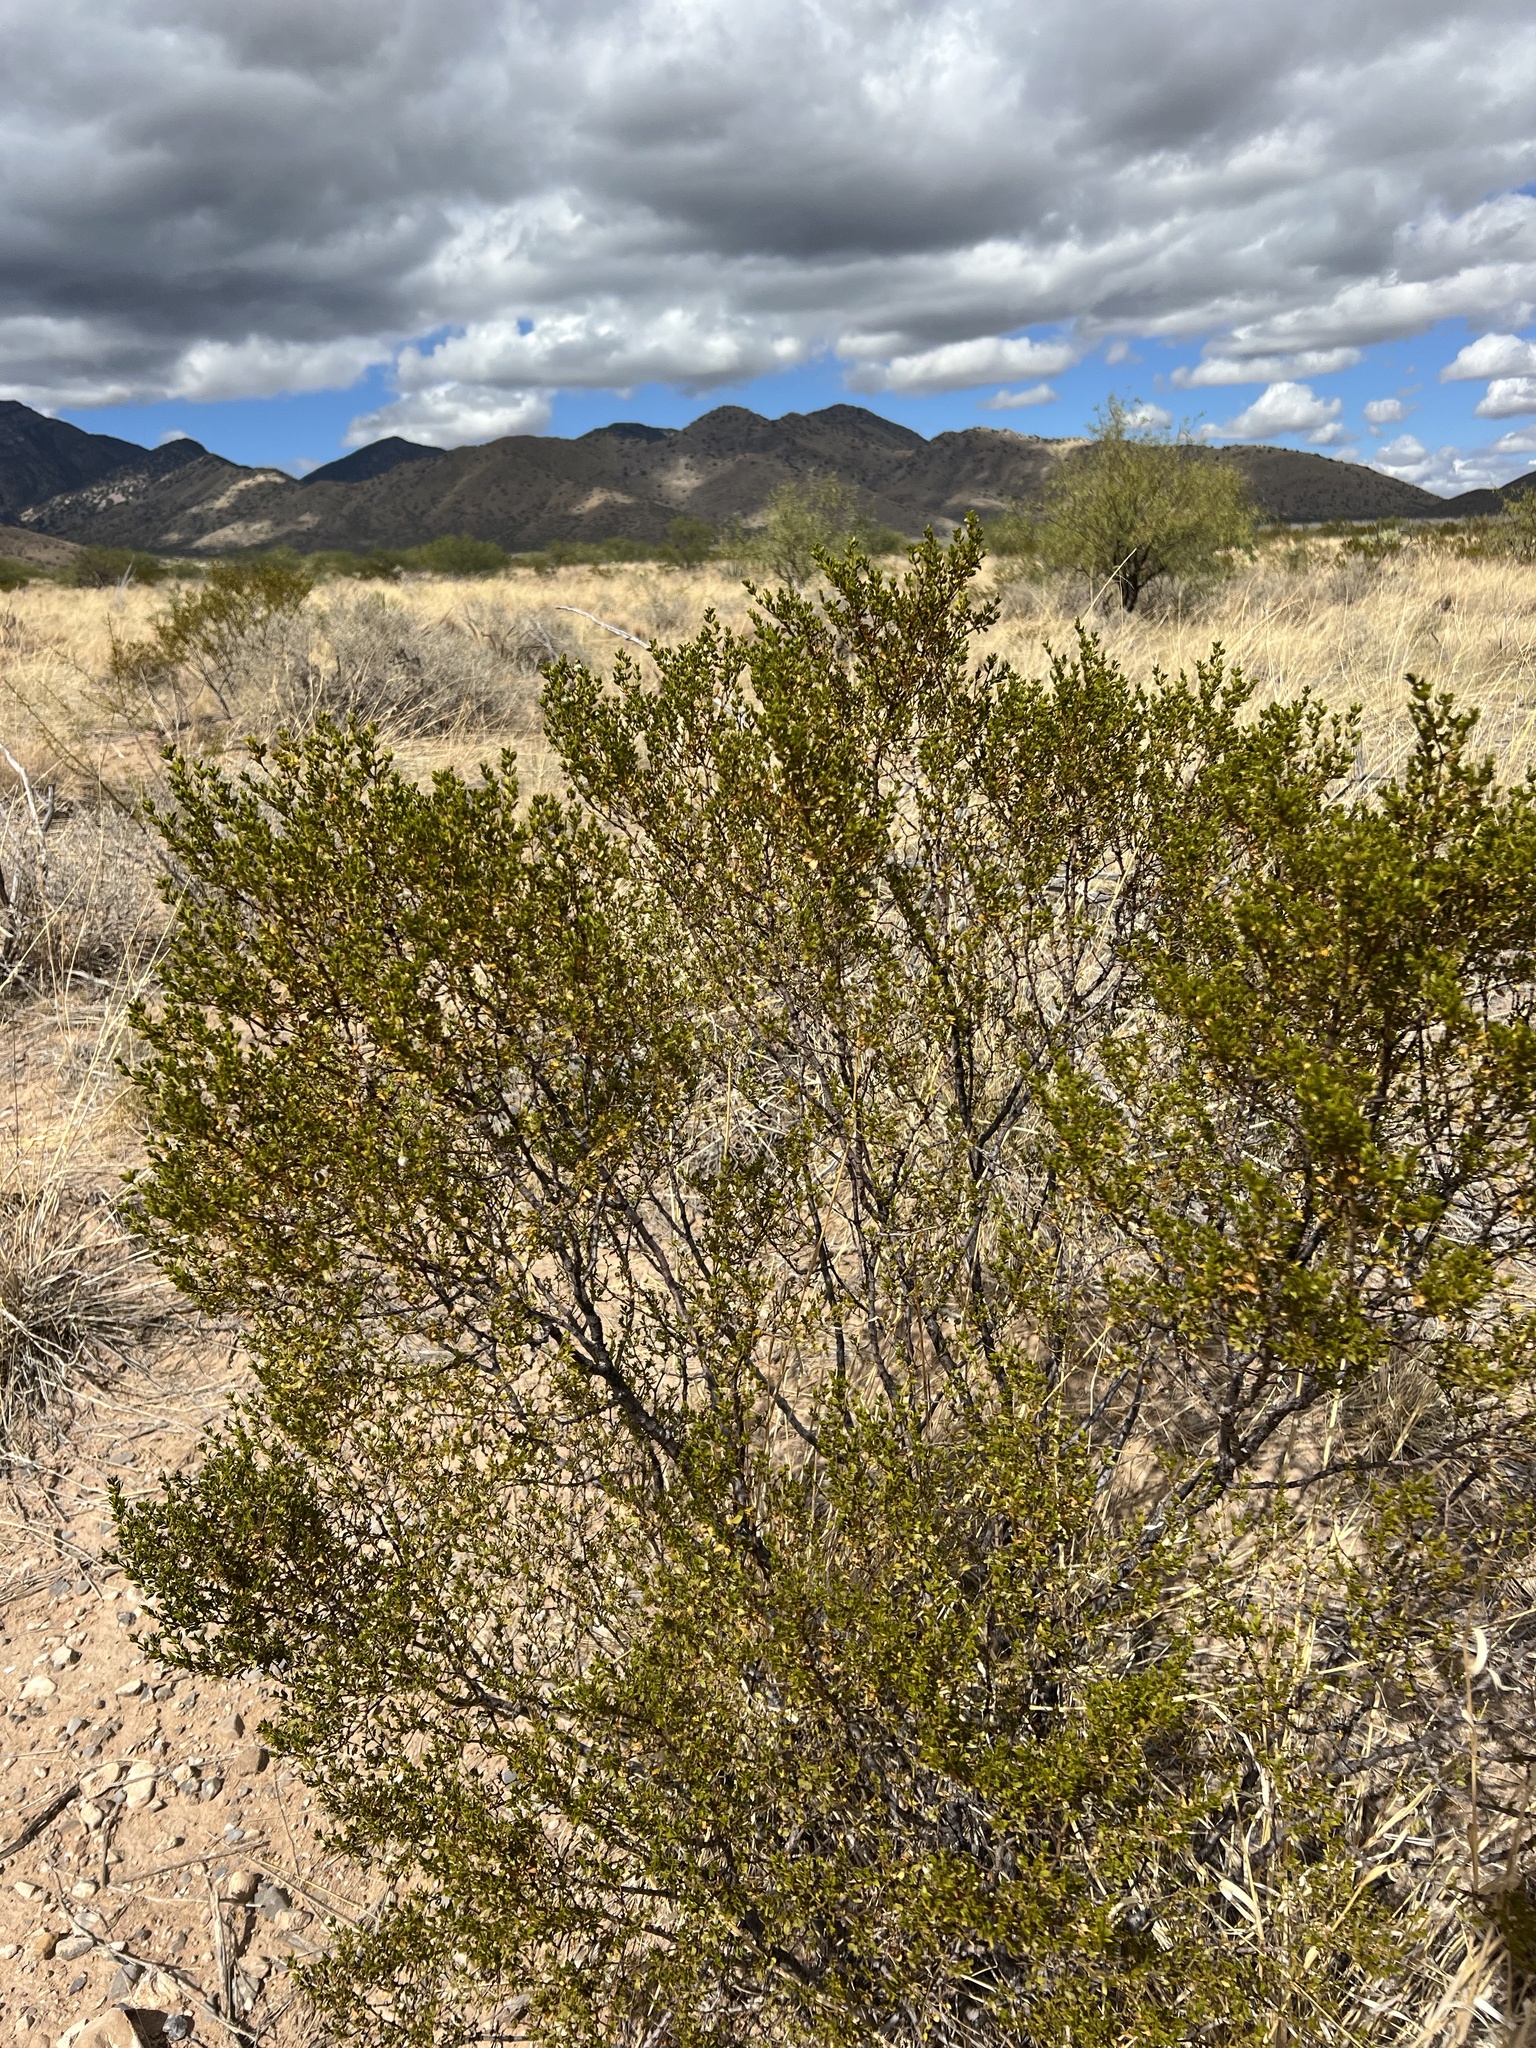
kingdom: Plantae
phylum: Tracheophyta
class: Magnoliopsida
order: Zygophyllales
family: Zygophyllaceae
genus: Larrea
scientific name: Larrea tridentata
